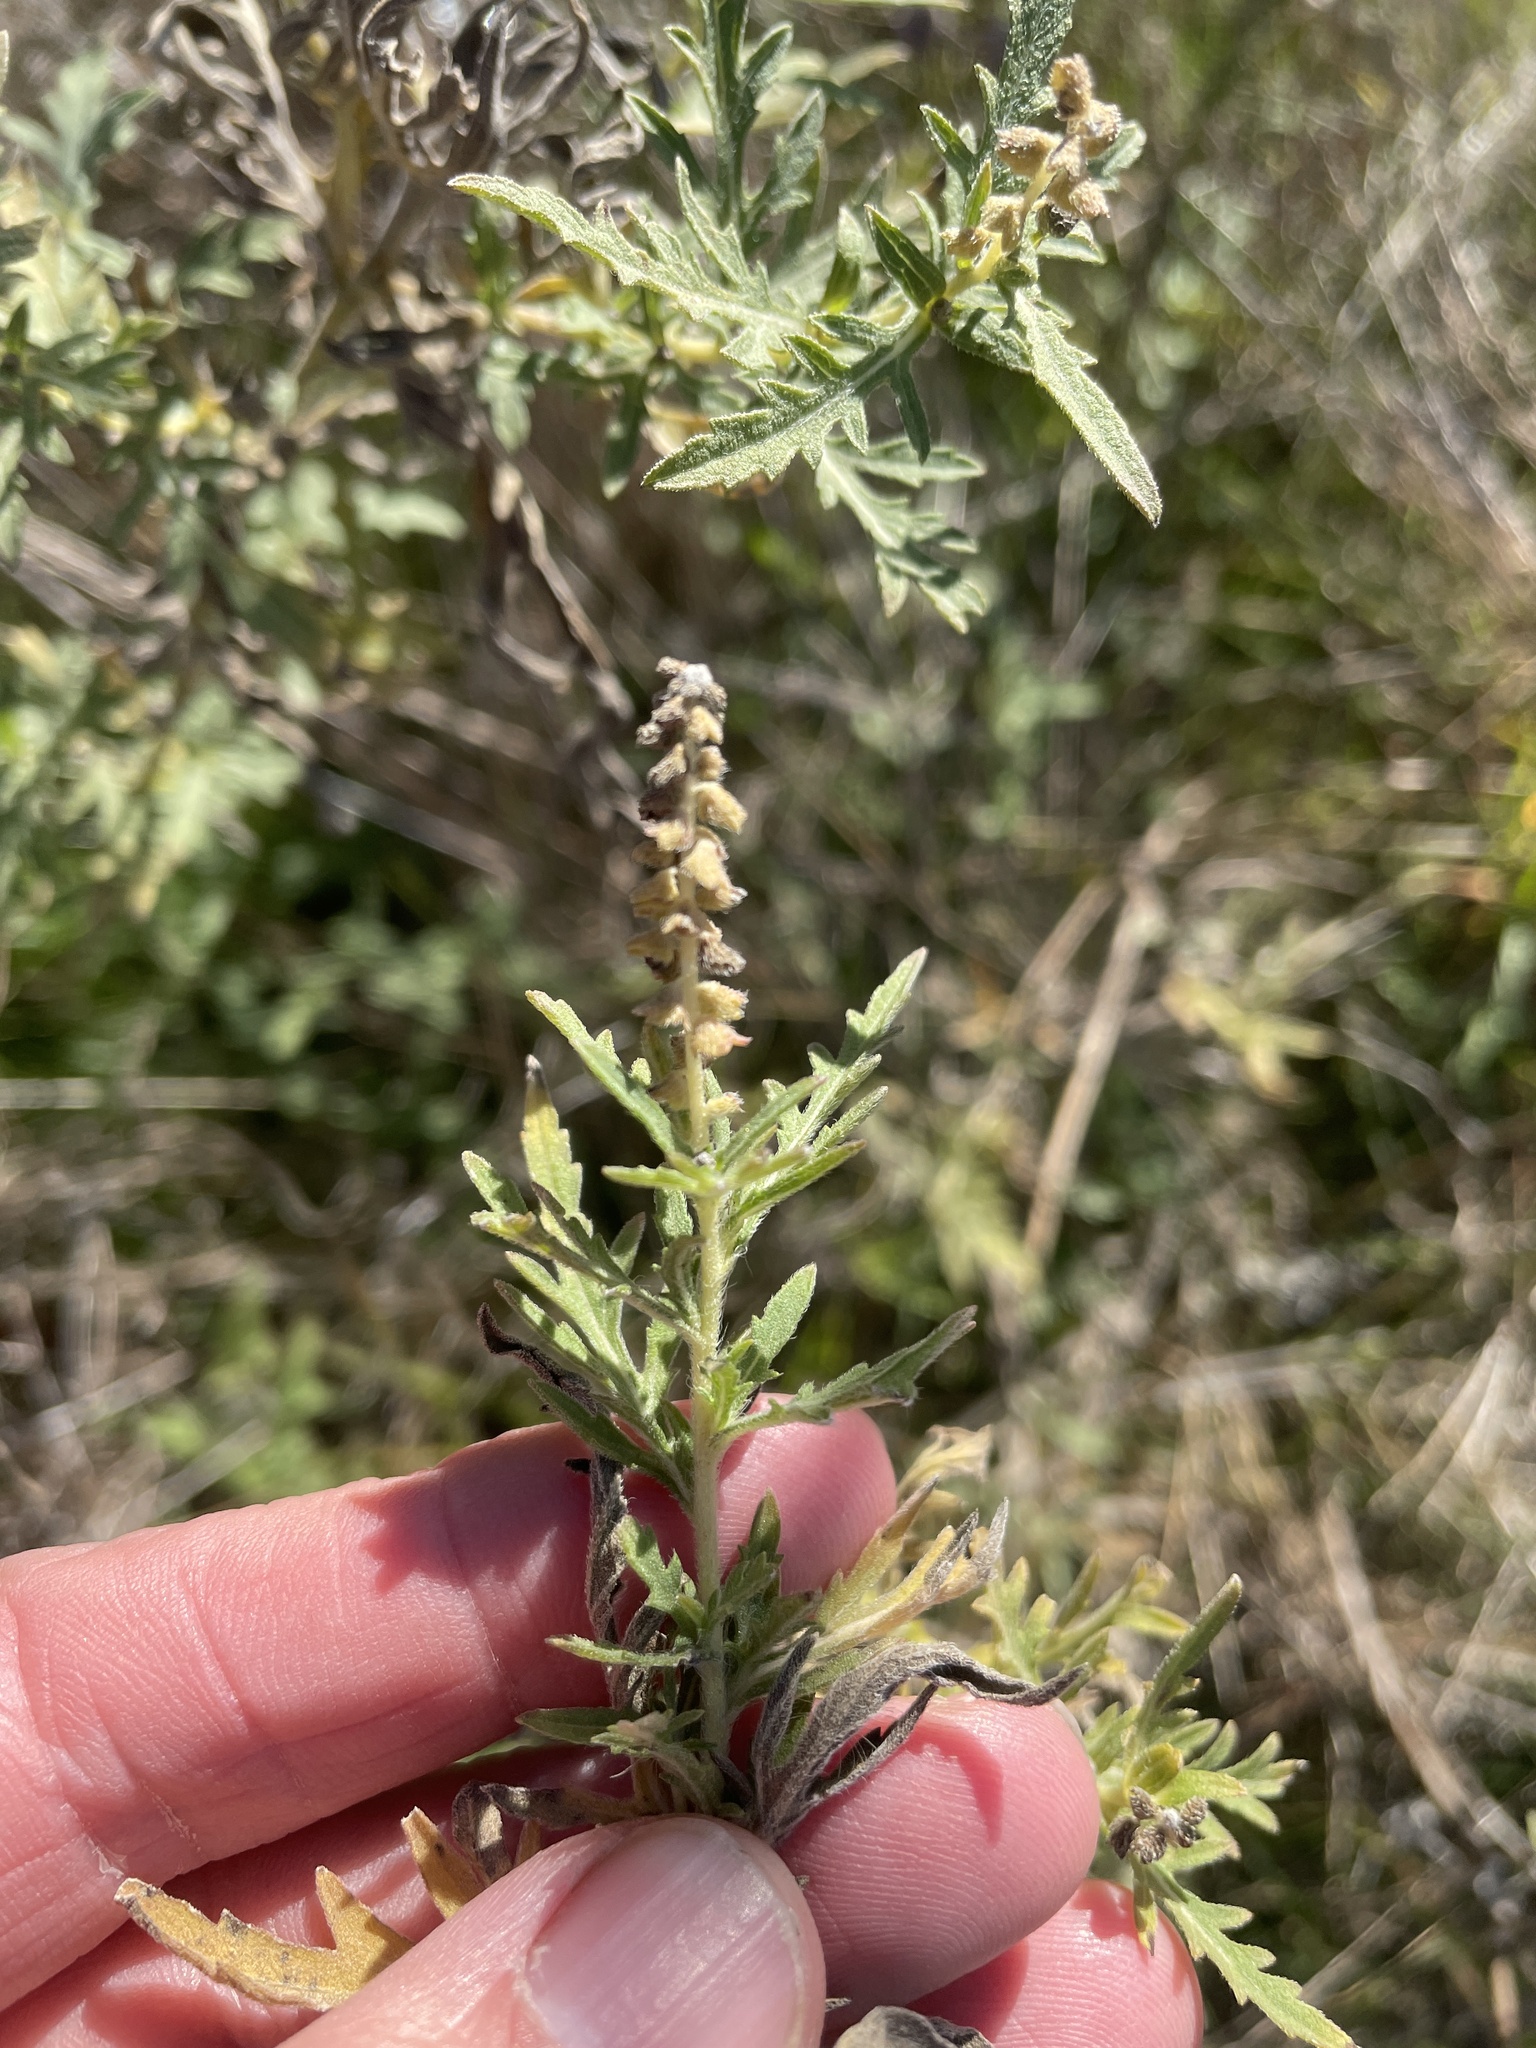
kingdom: Plantae
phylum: Tracheophyta
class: Magnoliopsida
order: Asterales
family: Asteraceae
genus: Ambrosia
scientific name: Ambrosia psilostachya
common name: Perennial ragweed
